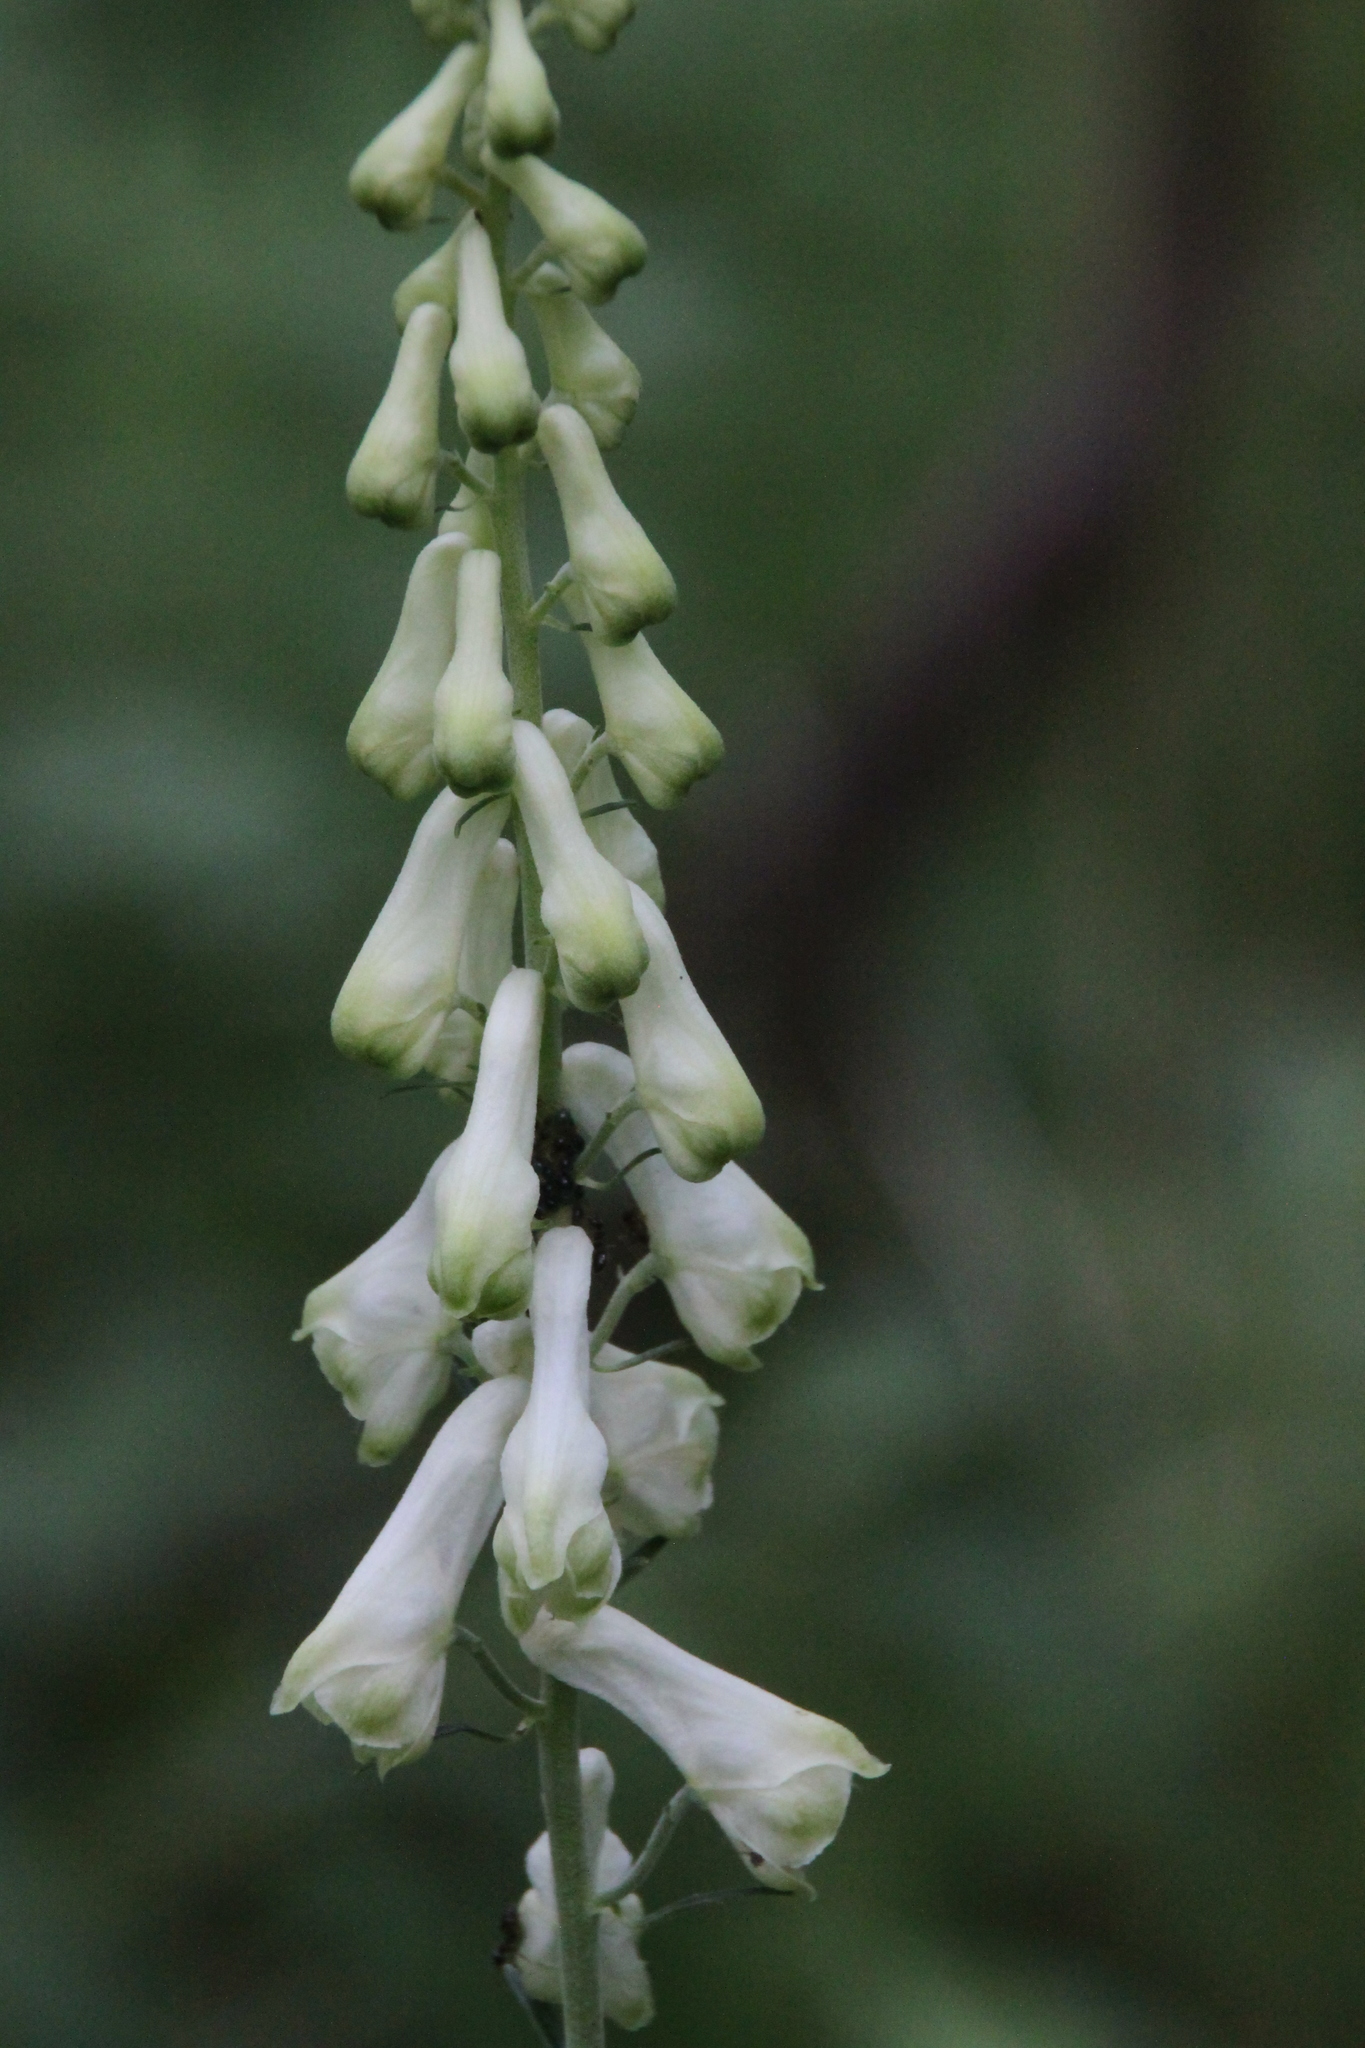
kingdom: Plantae
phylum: Tracheophyta
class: Magnoliopsida
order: Ranunculales
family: Ranunculaceae
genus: Aconitum
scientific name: Aconitum lasiostomum
